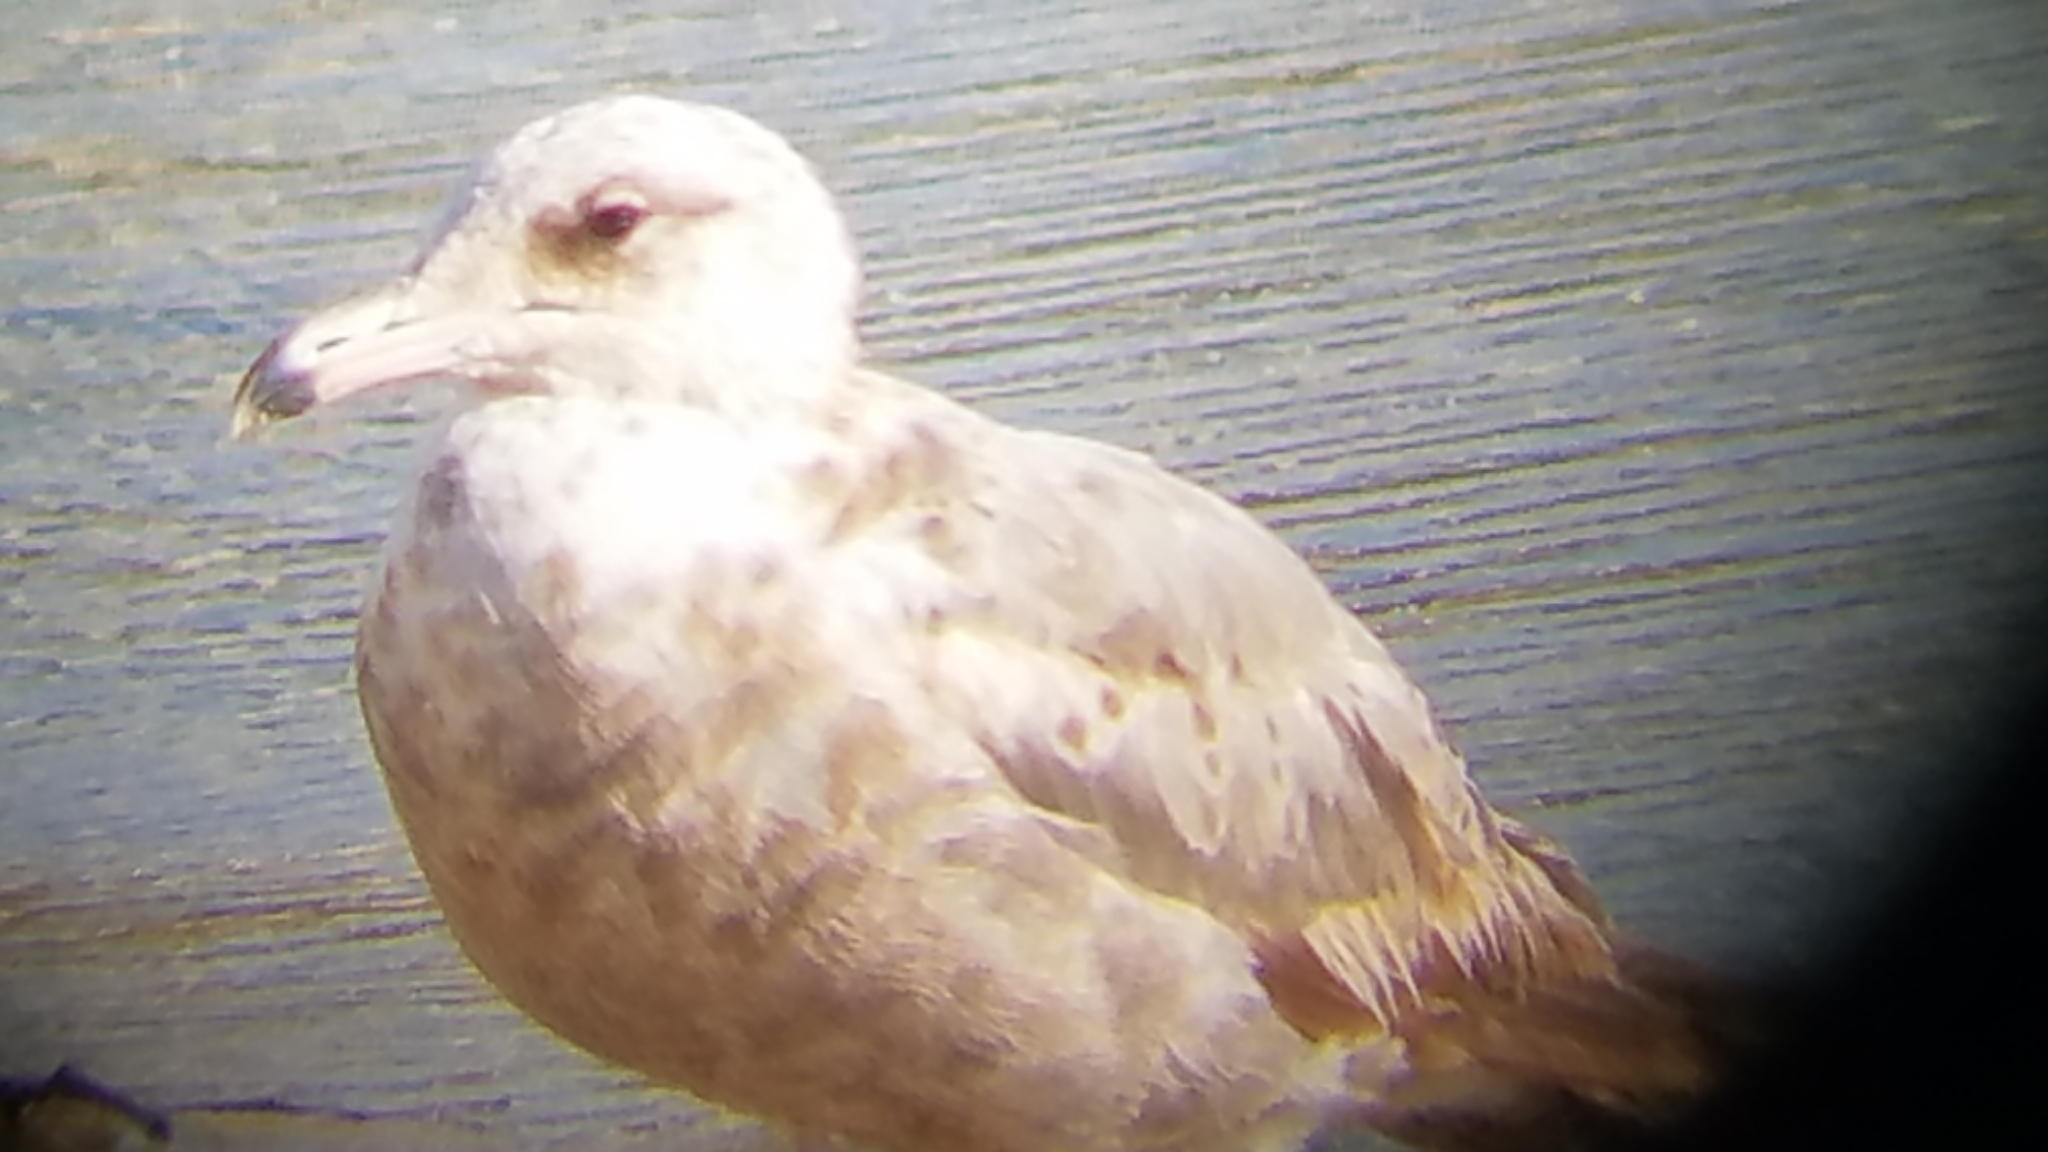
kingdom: Animalia
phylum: Chordata
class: Aves
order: Charadriiformes
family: Laridae
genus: Larus
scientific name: Larus californicus
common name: California gull
